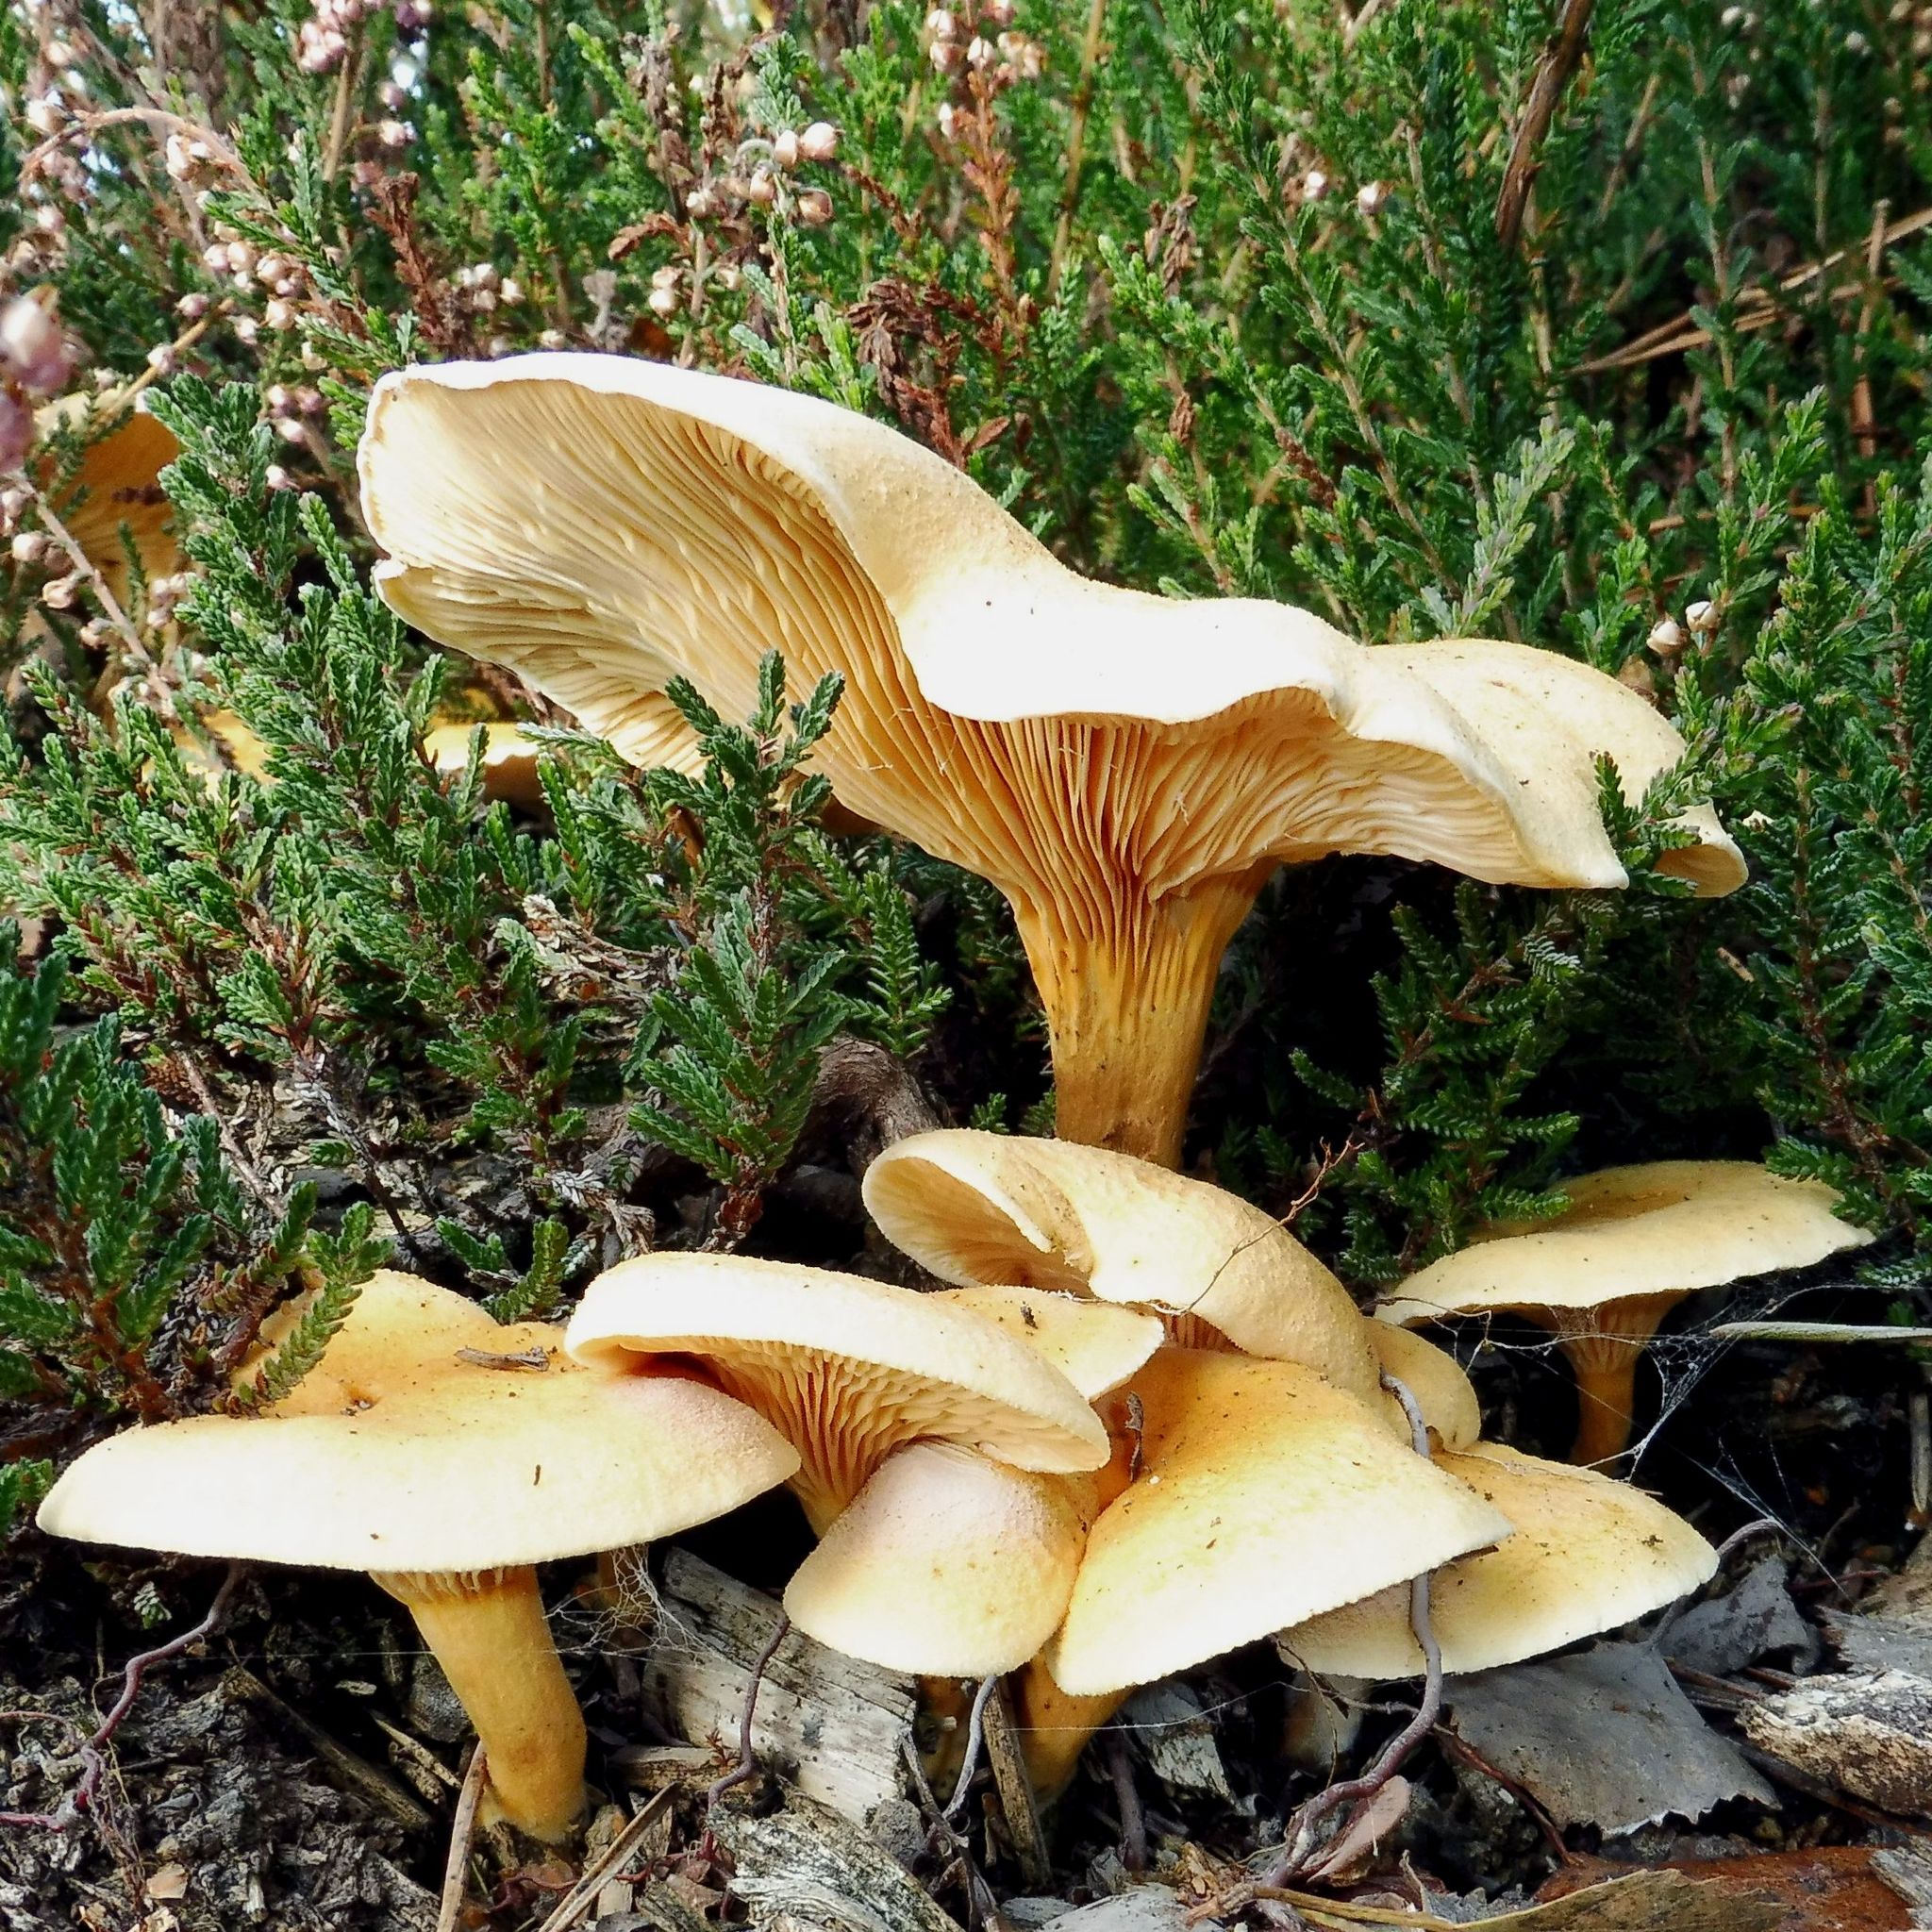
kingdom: Fungi
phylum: Basidiomycota
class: Agaricomycetes
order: Boletales
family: Hygrophoropsidaceae
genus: Hygrophoropsis
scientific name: Hygrophoropsis aurantiaca
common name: False chanterelle
